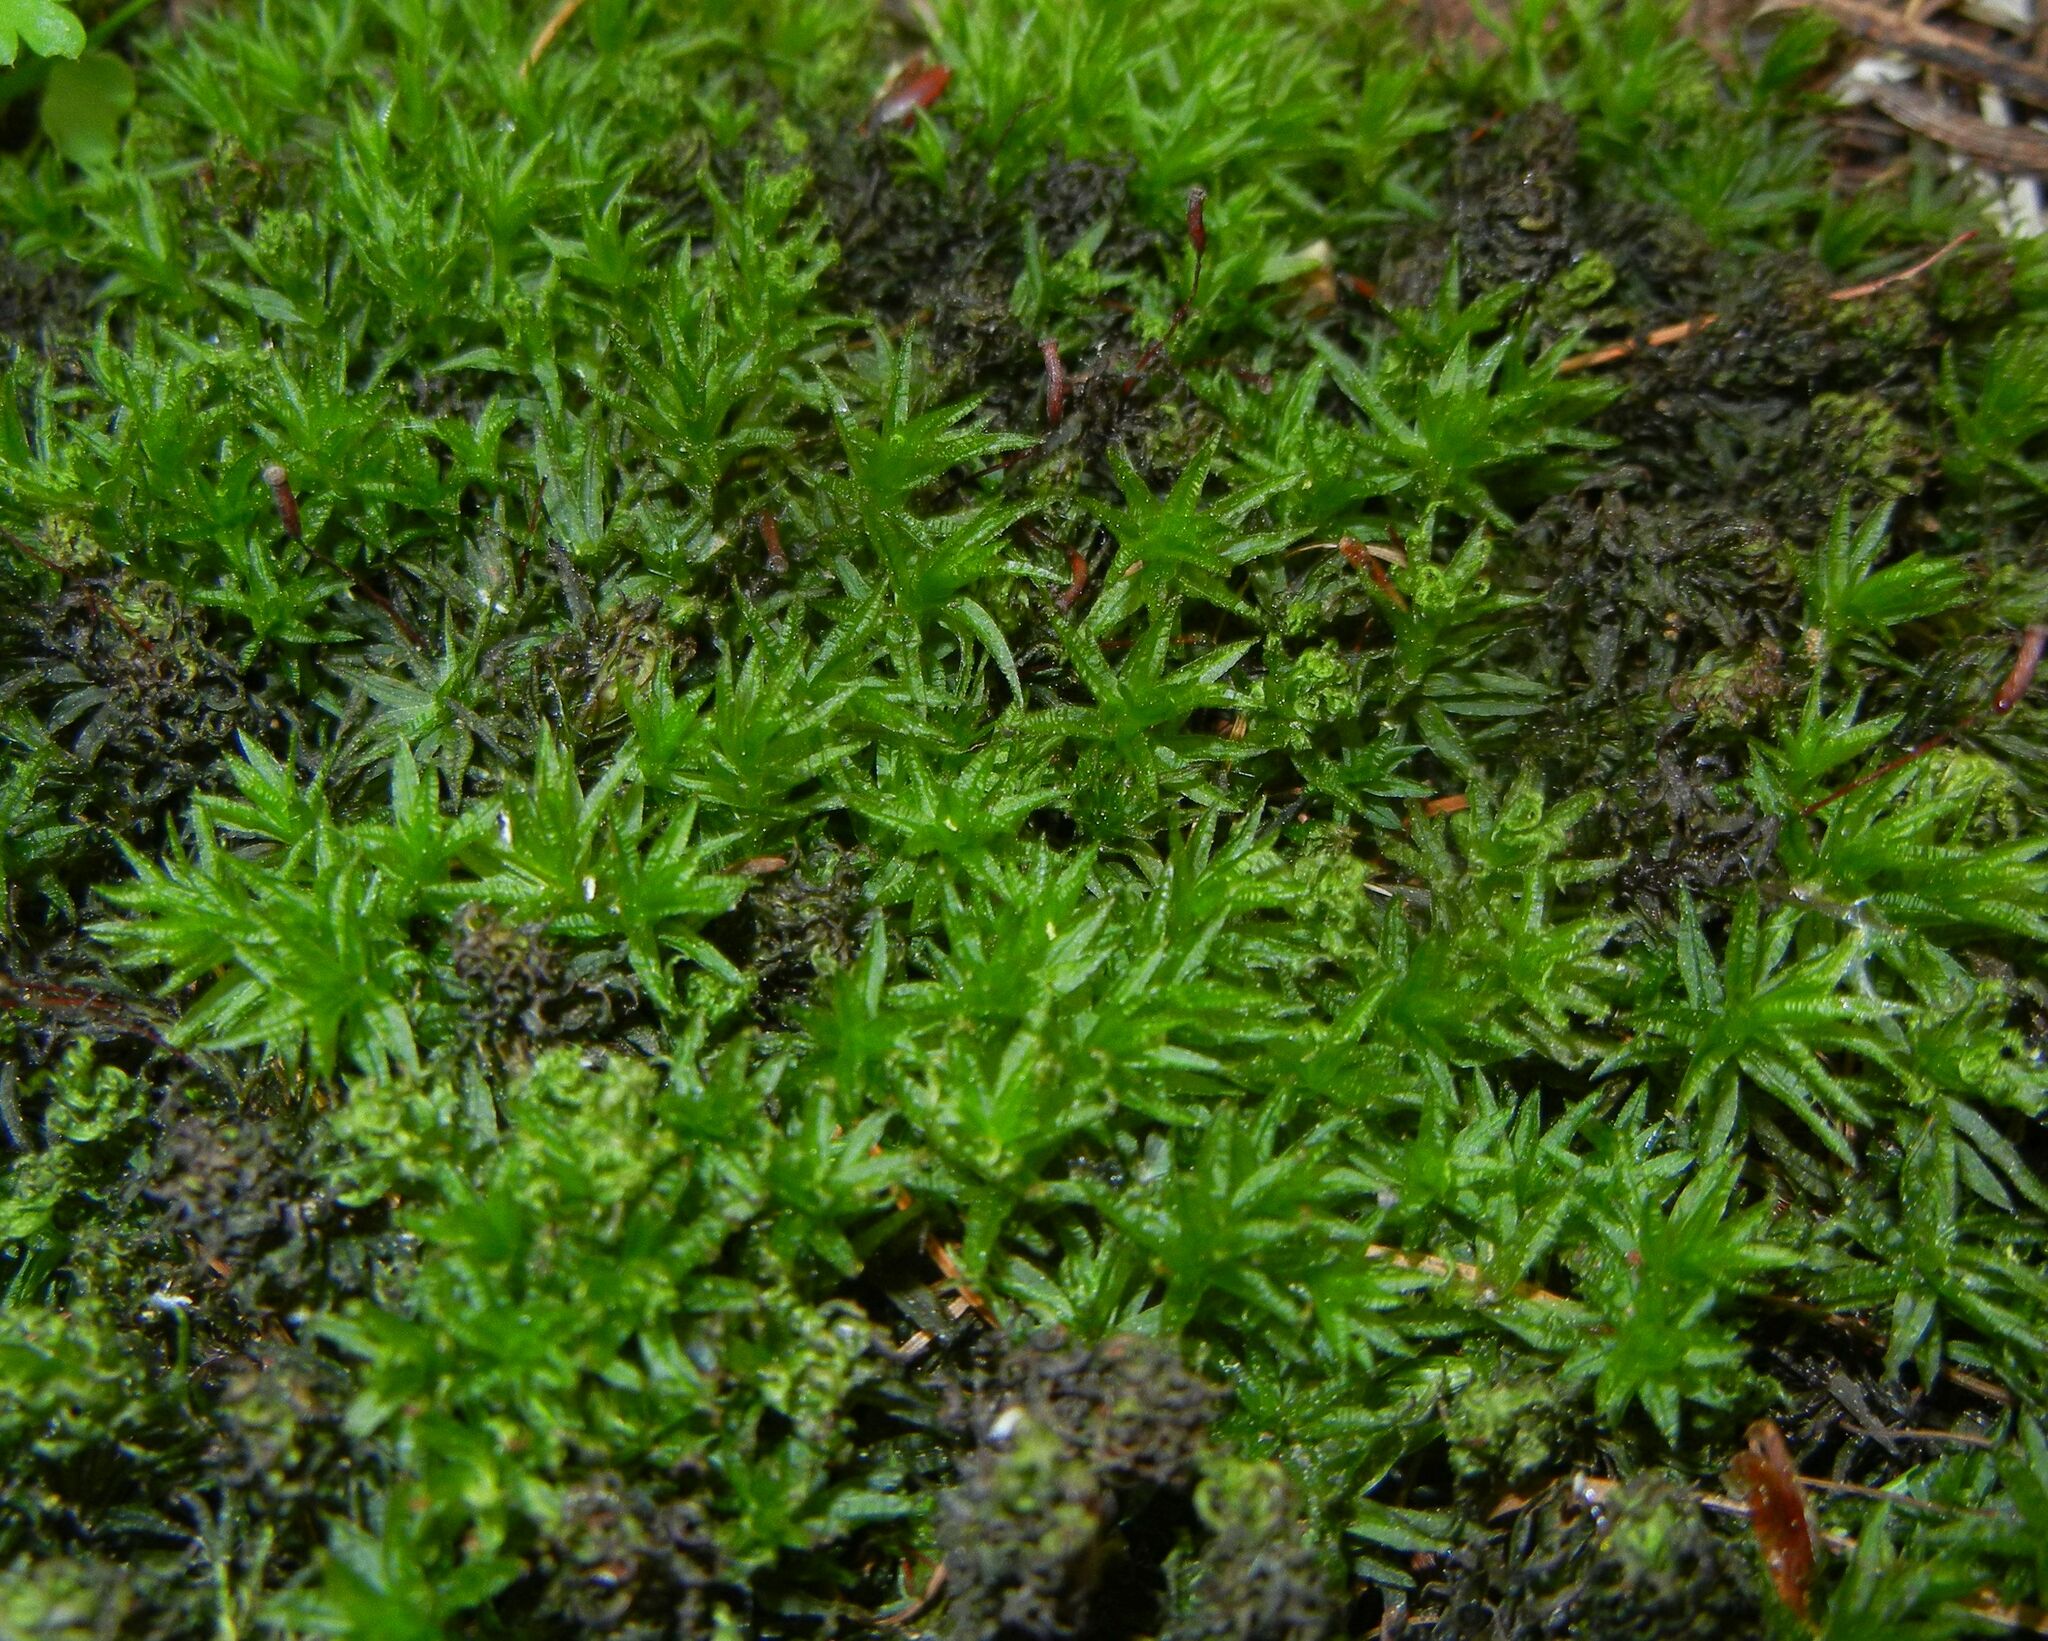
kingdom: Plantae
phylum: Bryophyta
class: Polytrichopsida
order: Polytrichales
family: Polytrichaceae
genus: Atrichum
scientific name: Atrichum undulatum
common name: Common smoothcap
